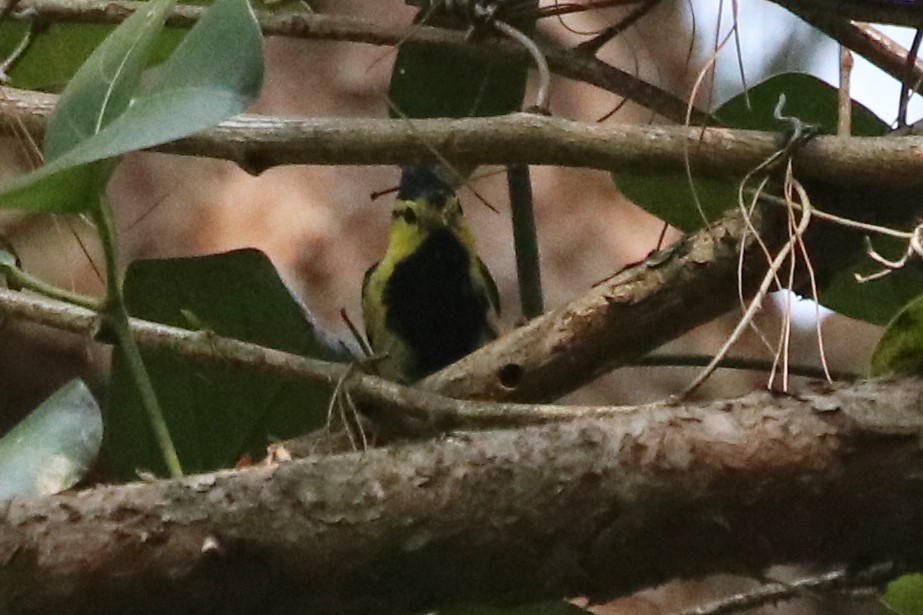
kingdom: Animalia
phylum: Chordata
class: Aves
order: Passeriformes
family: Paridae
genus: Parus
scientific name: Parus spilonotus
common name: Yellow-cheeked tit
